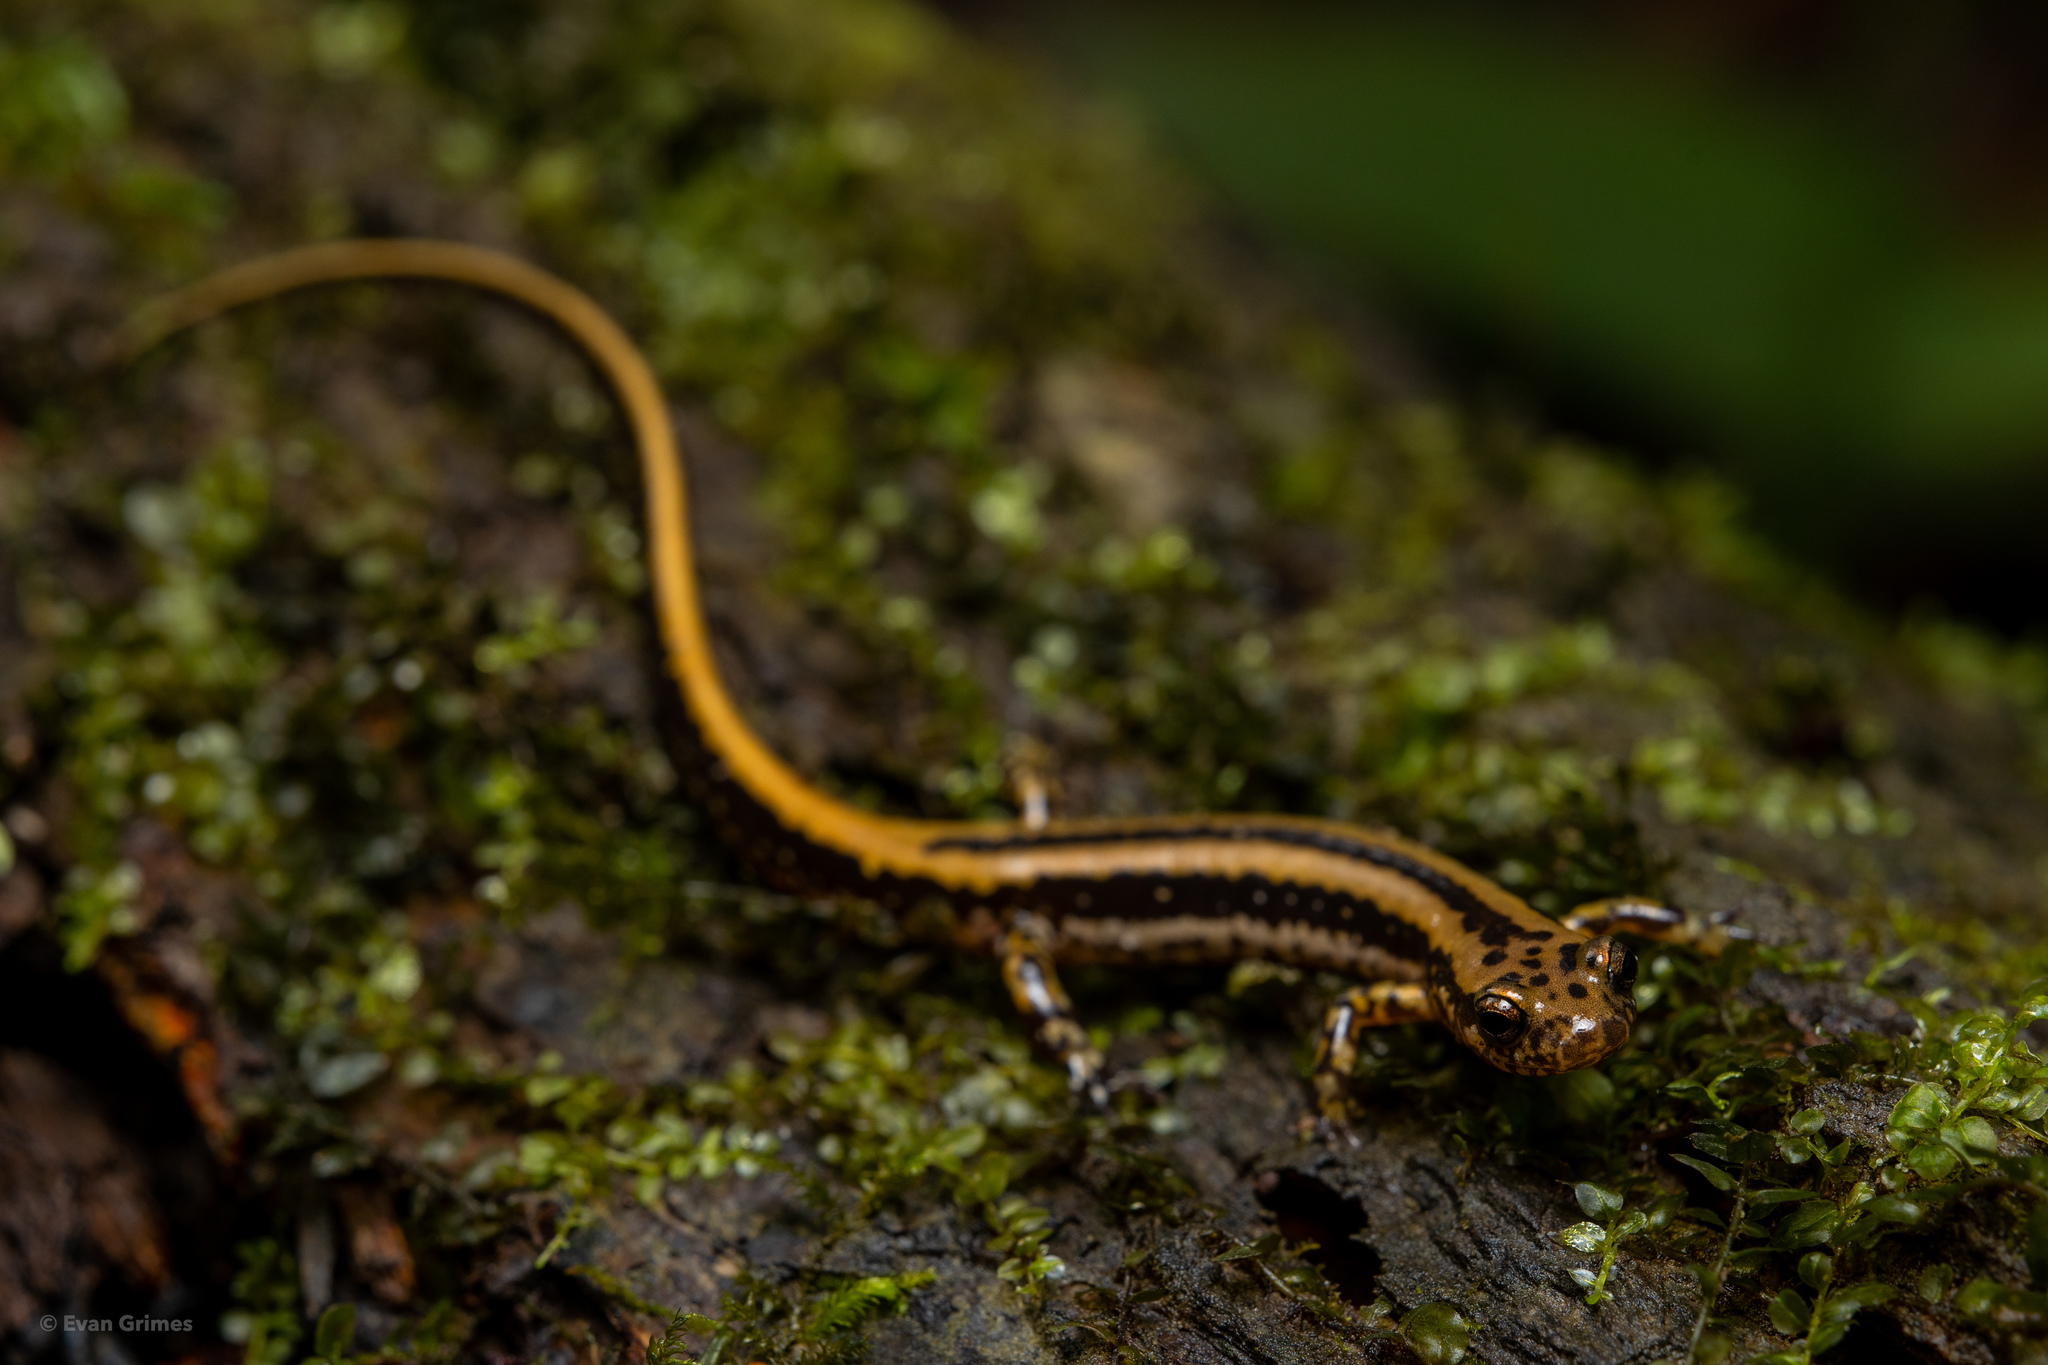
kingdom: Animalia
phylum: Chordata
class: Amphibia
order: Caudata
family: Plethodontidae
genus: Eurycea
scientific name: Eurycea guttolineata
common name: Three-lined salamander
